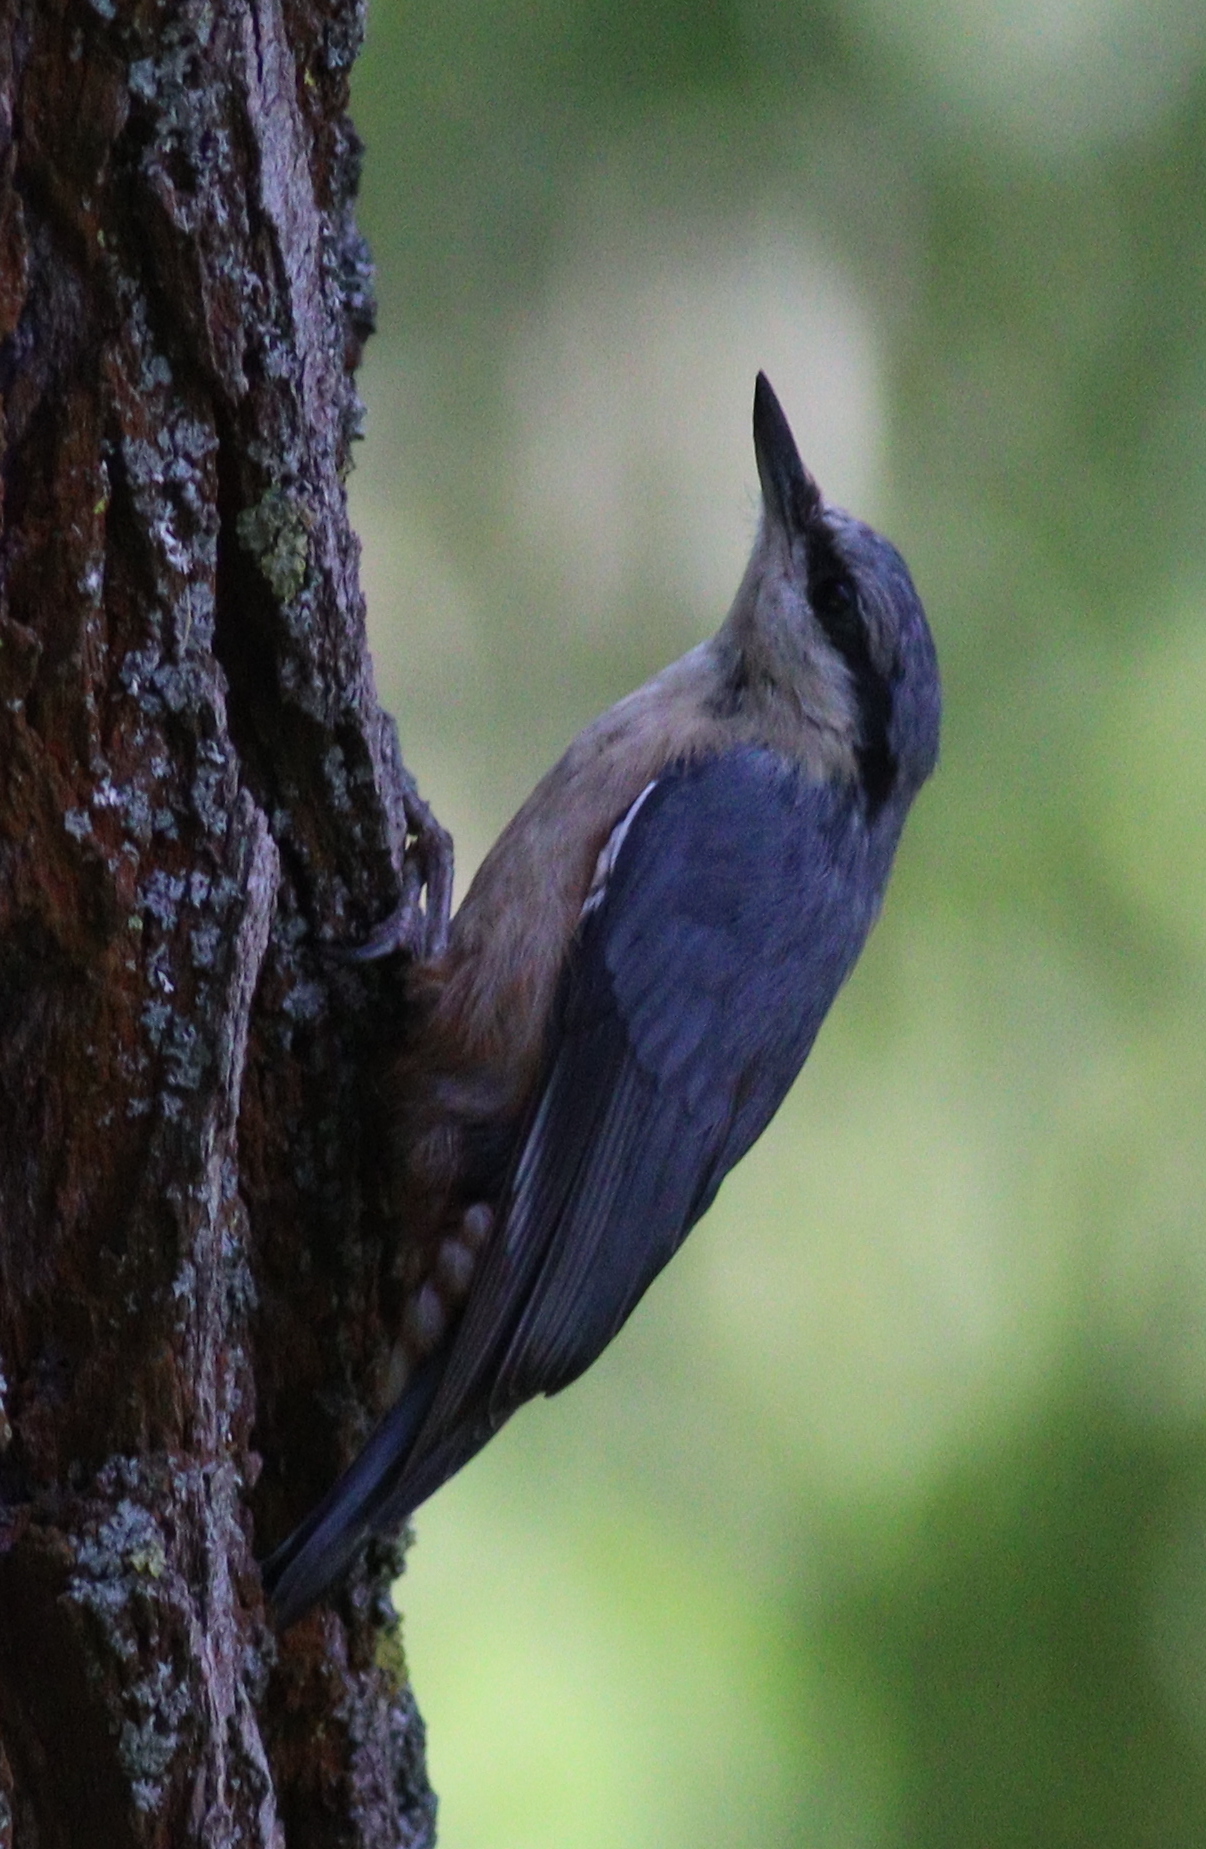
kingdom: Animalia
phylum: Chordata
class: Aves
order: Passeriformes
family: Sittidae
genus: Sitta
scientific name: Sitta europaea
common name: Eurasian nuthatch
